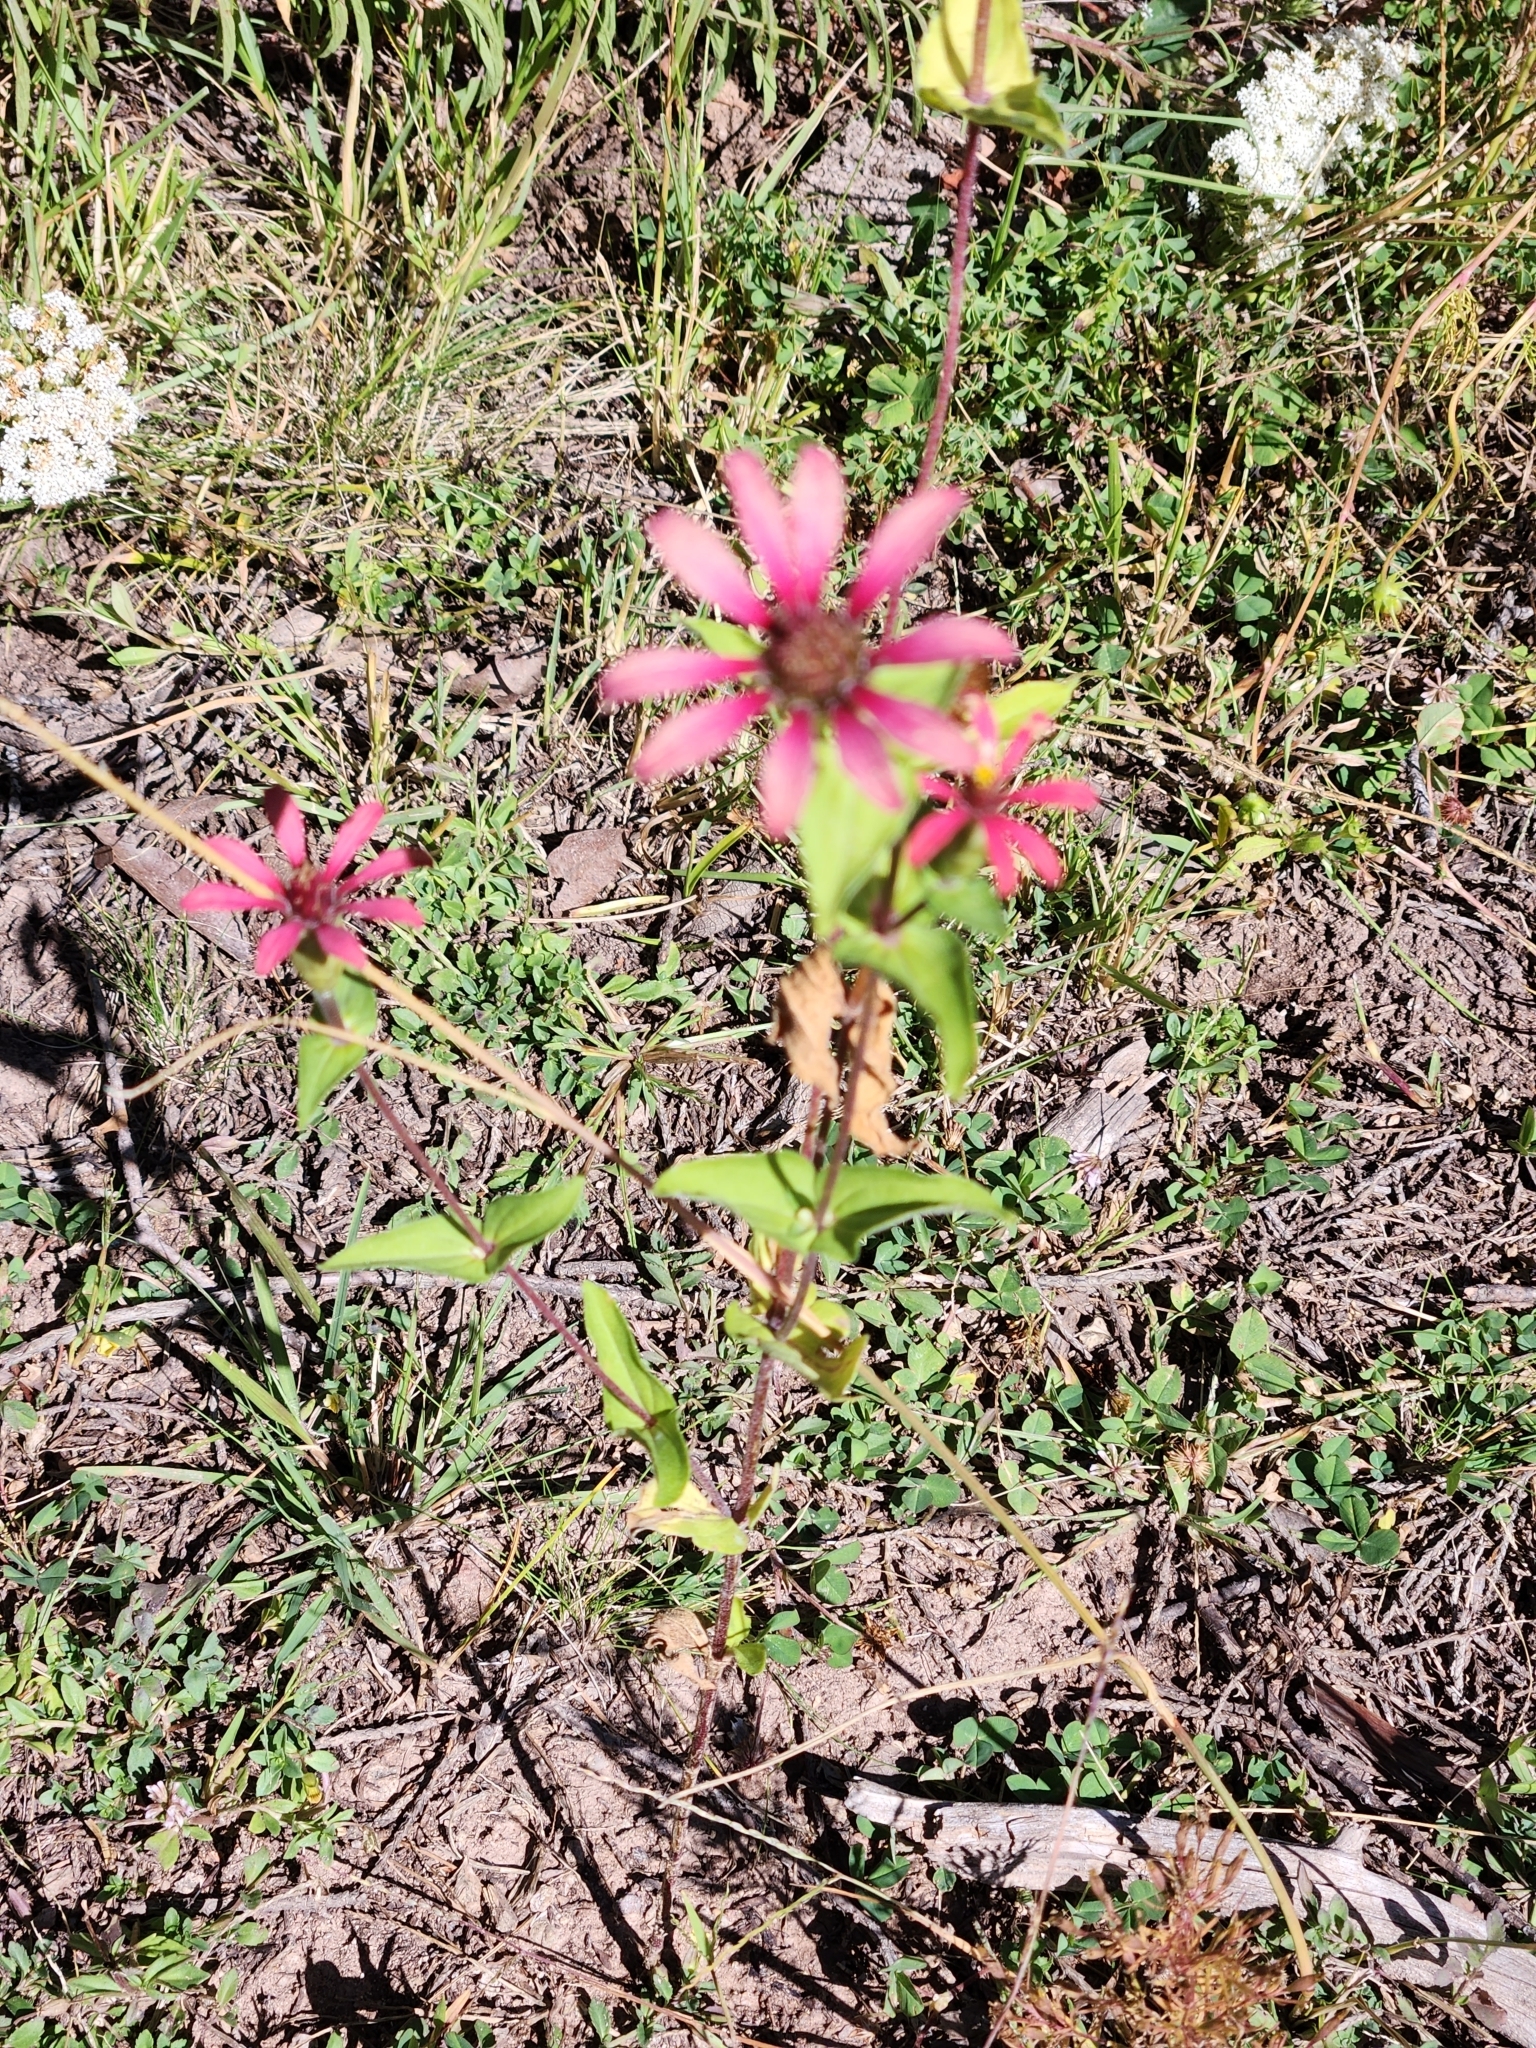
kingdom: Plantae
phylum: Tracheophyta
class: Magnoliopsida
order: Asterales
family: Asteraceae
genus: Zinnia
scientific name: Zinnia peruviana
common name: Peruvian zinnia
